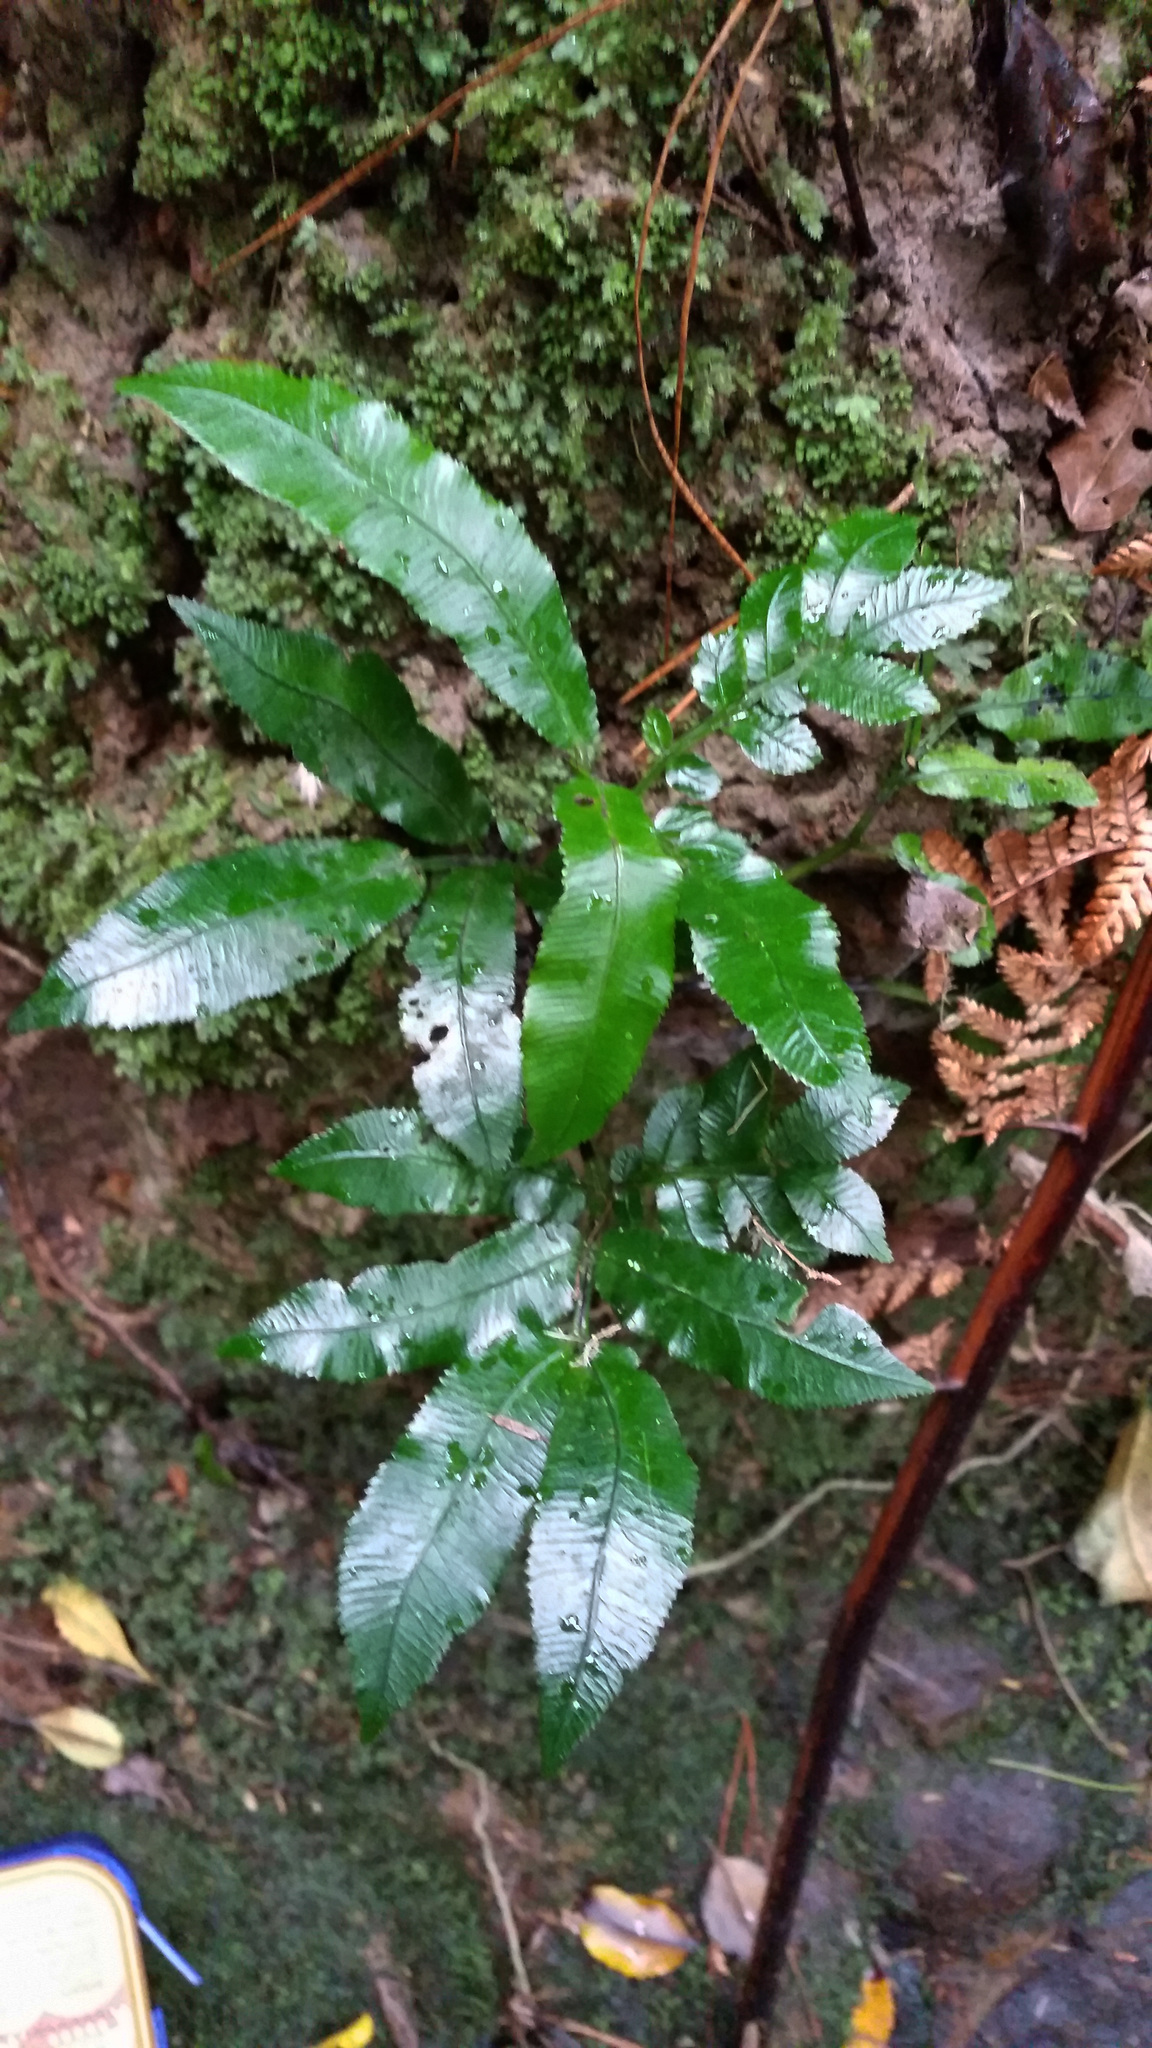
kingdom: Plantae
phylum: Tracheophyta
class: Polypodiopsida
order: Marattiales
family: Marattiaceae
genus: Ptisana
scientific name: Ptisana salicina
